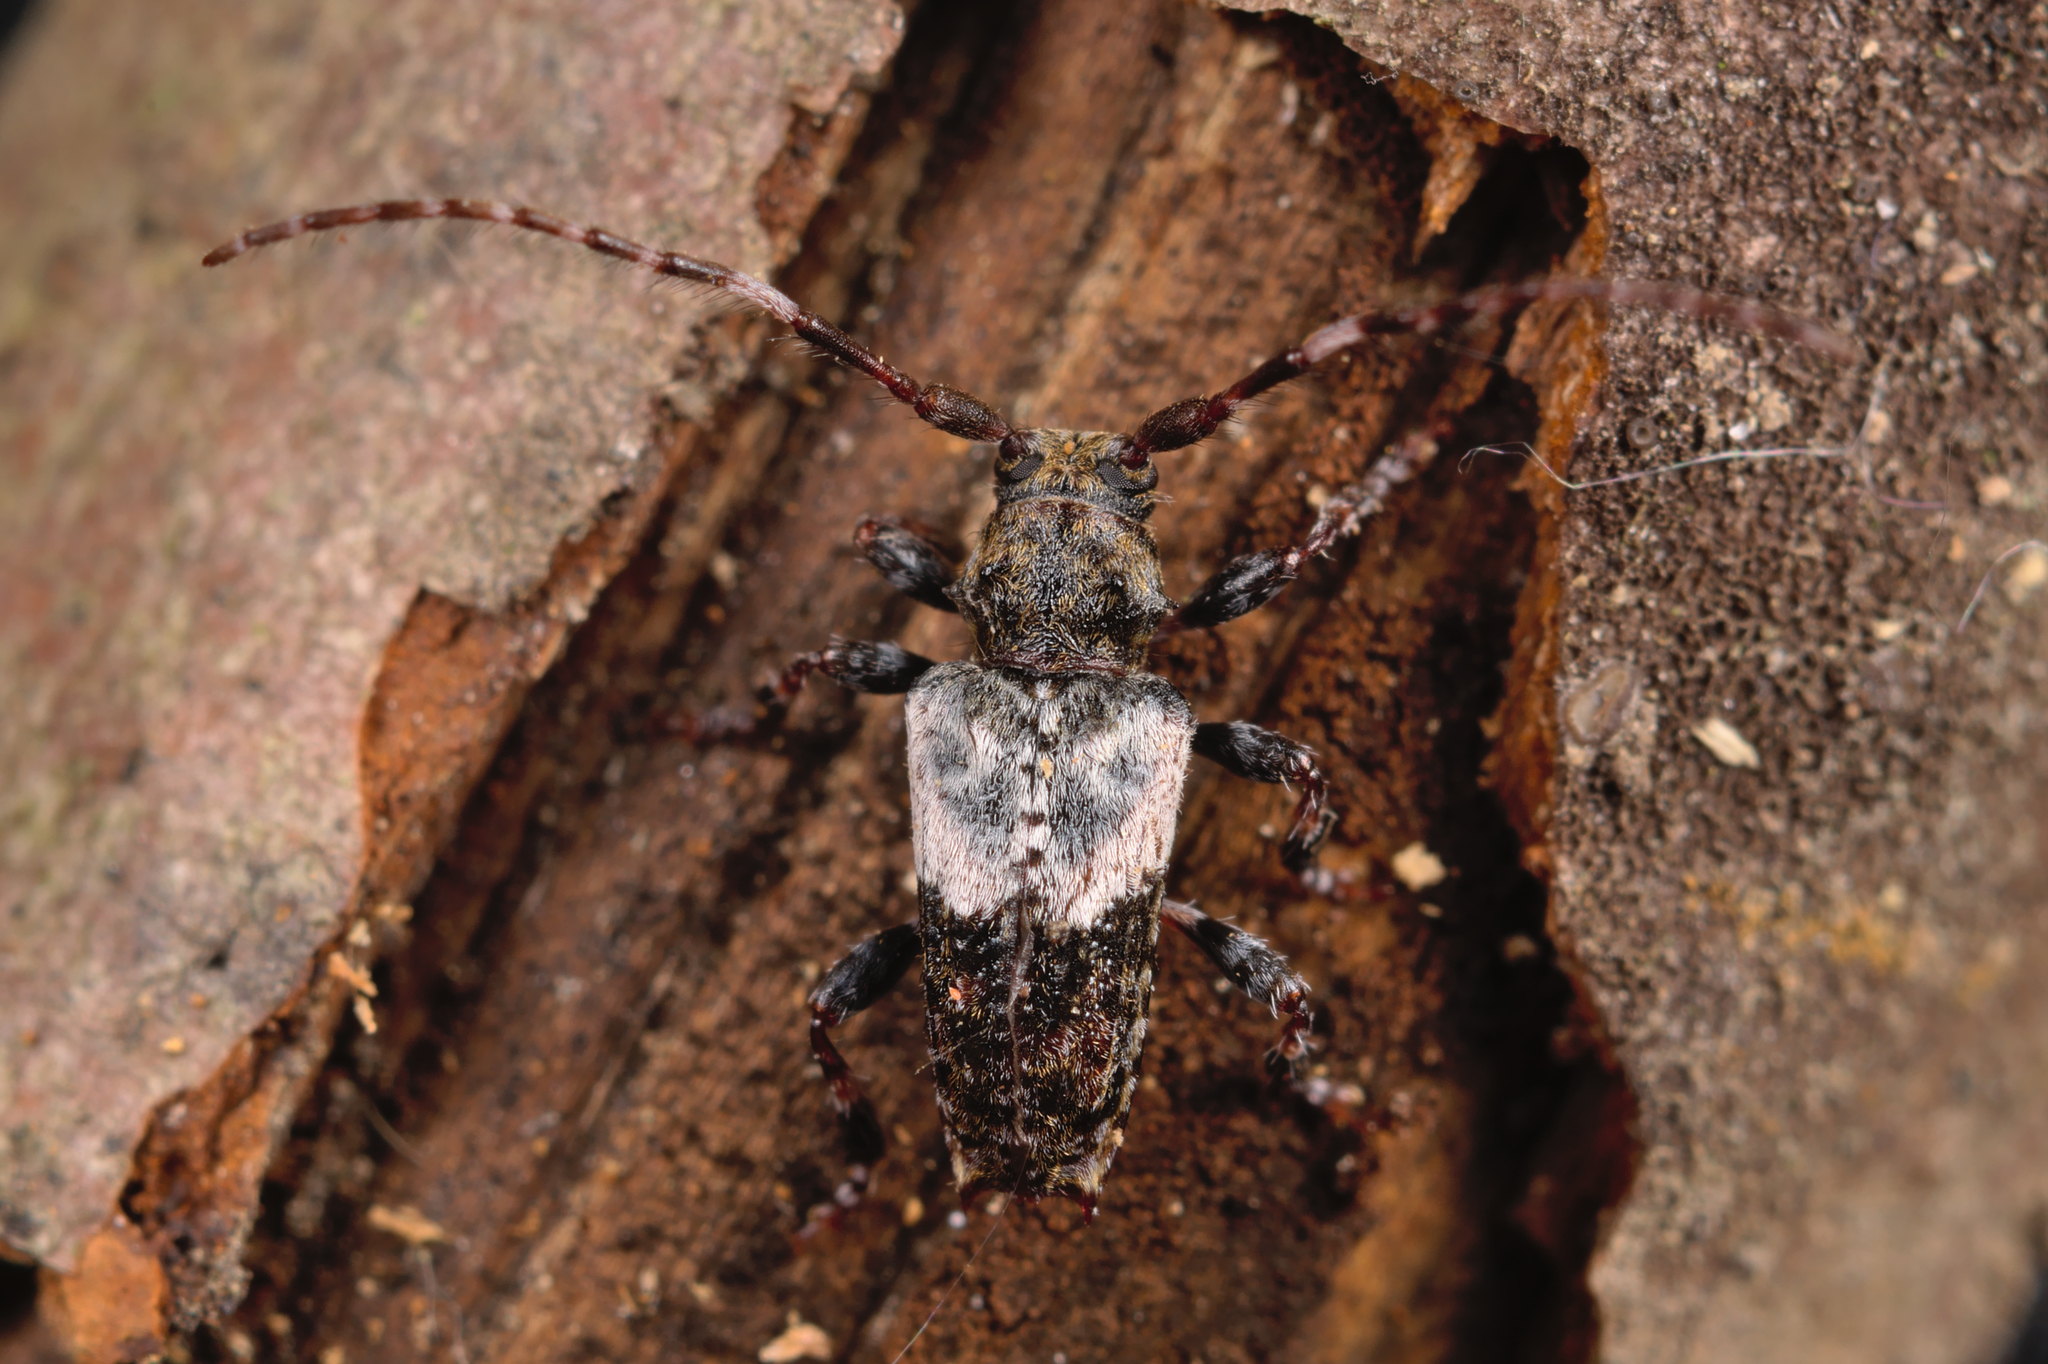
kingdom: Animalia
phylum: Arthropoda
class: Insecta
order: Coleoptera
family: Cerambycidae
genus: Pogonocherus
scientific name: Pogonocherus hispidulus
